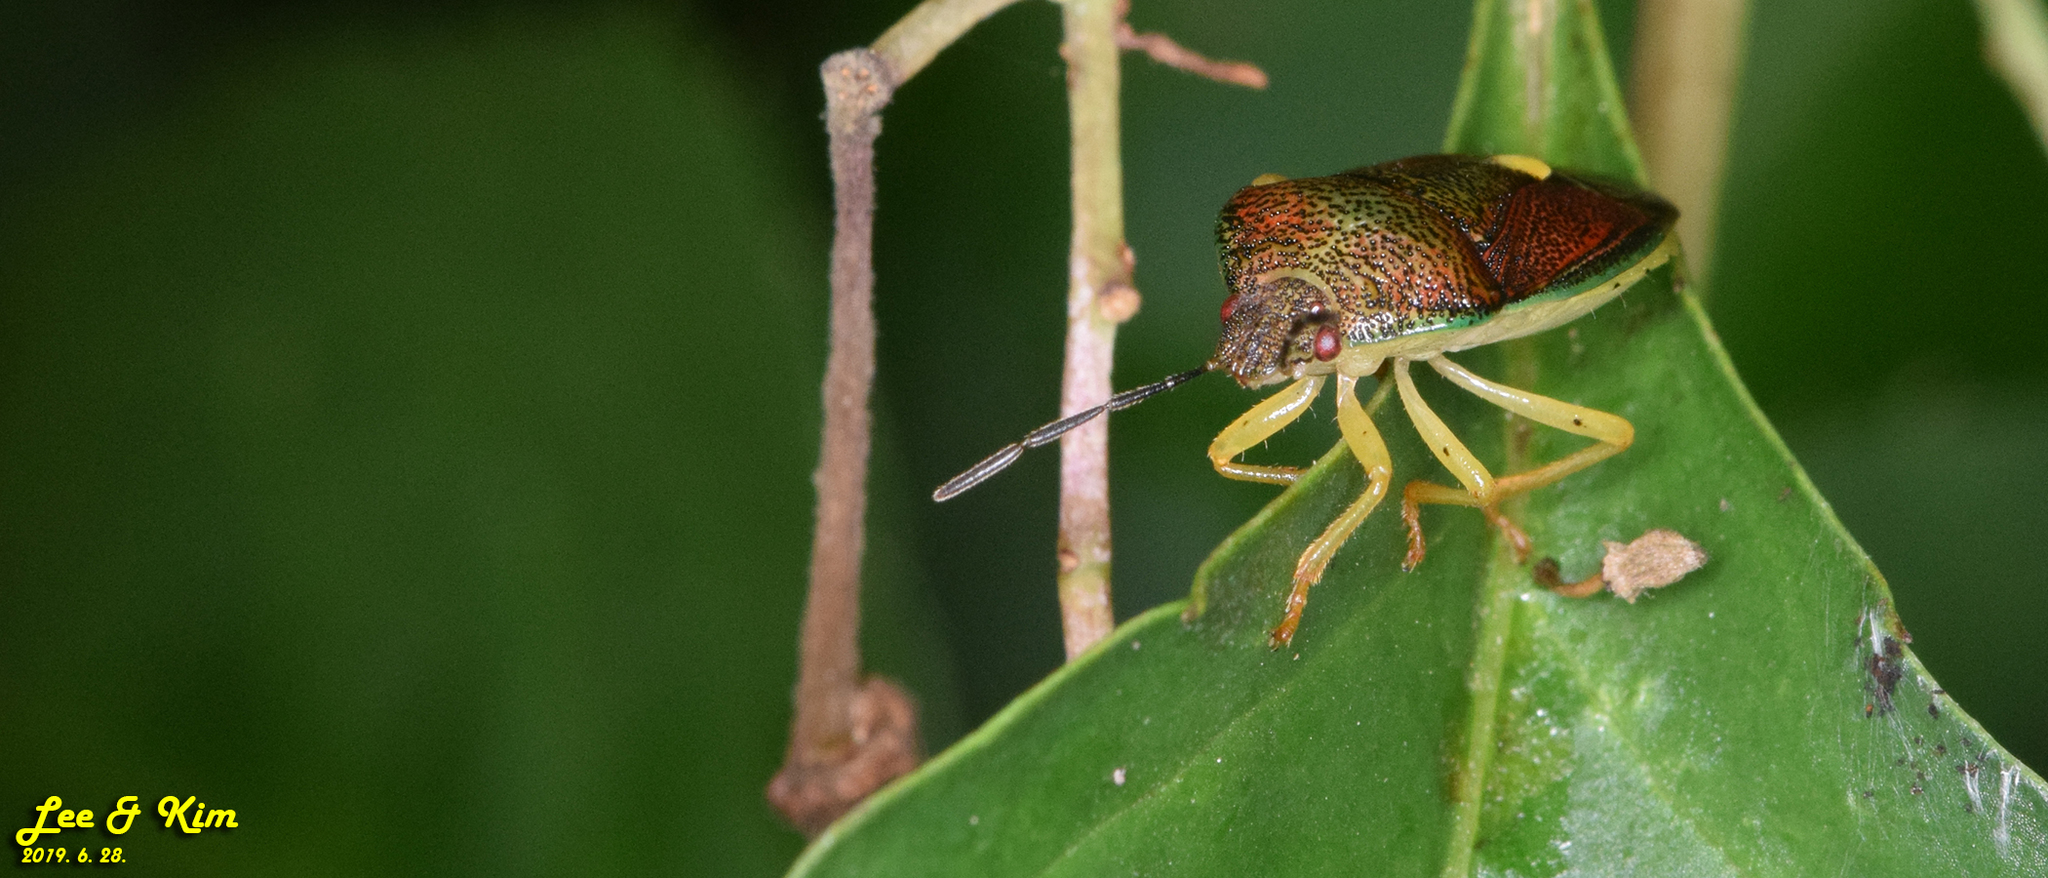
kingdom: Animalia
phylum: Arthropoda
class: Insecta
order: Hemiptera
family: Pentatomidae
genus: Chalazonotum
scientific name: Chalazonotum
